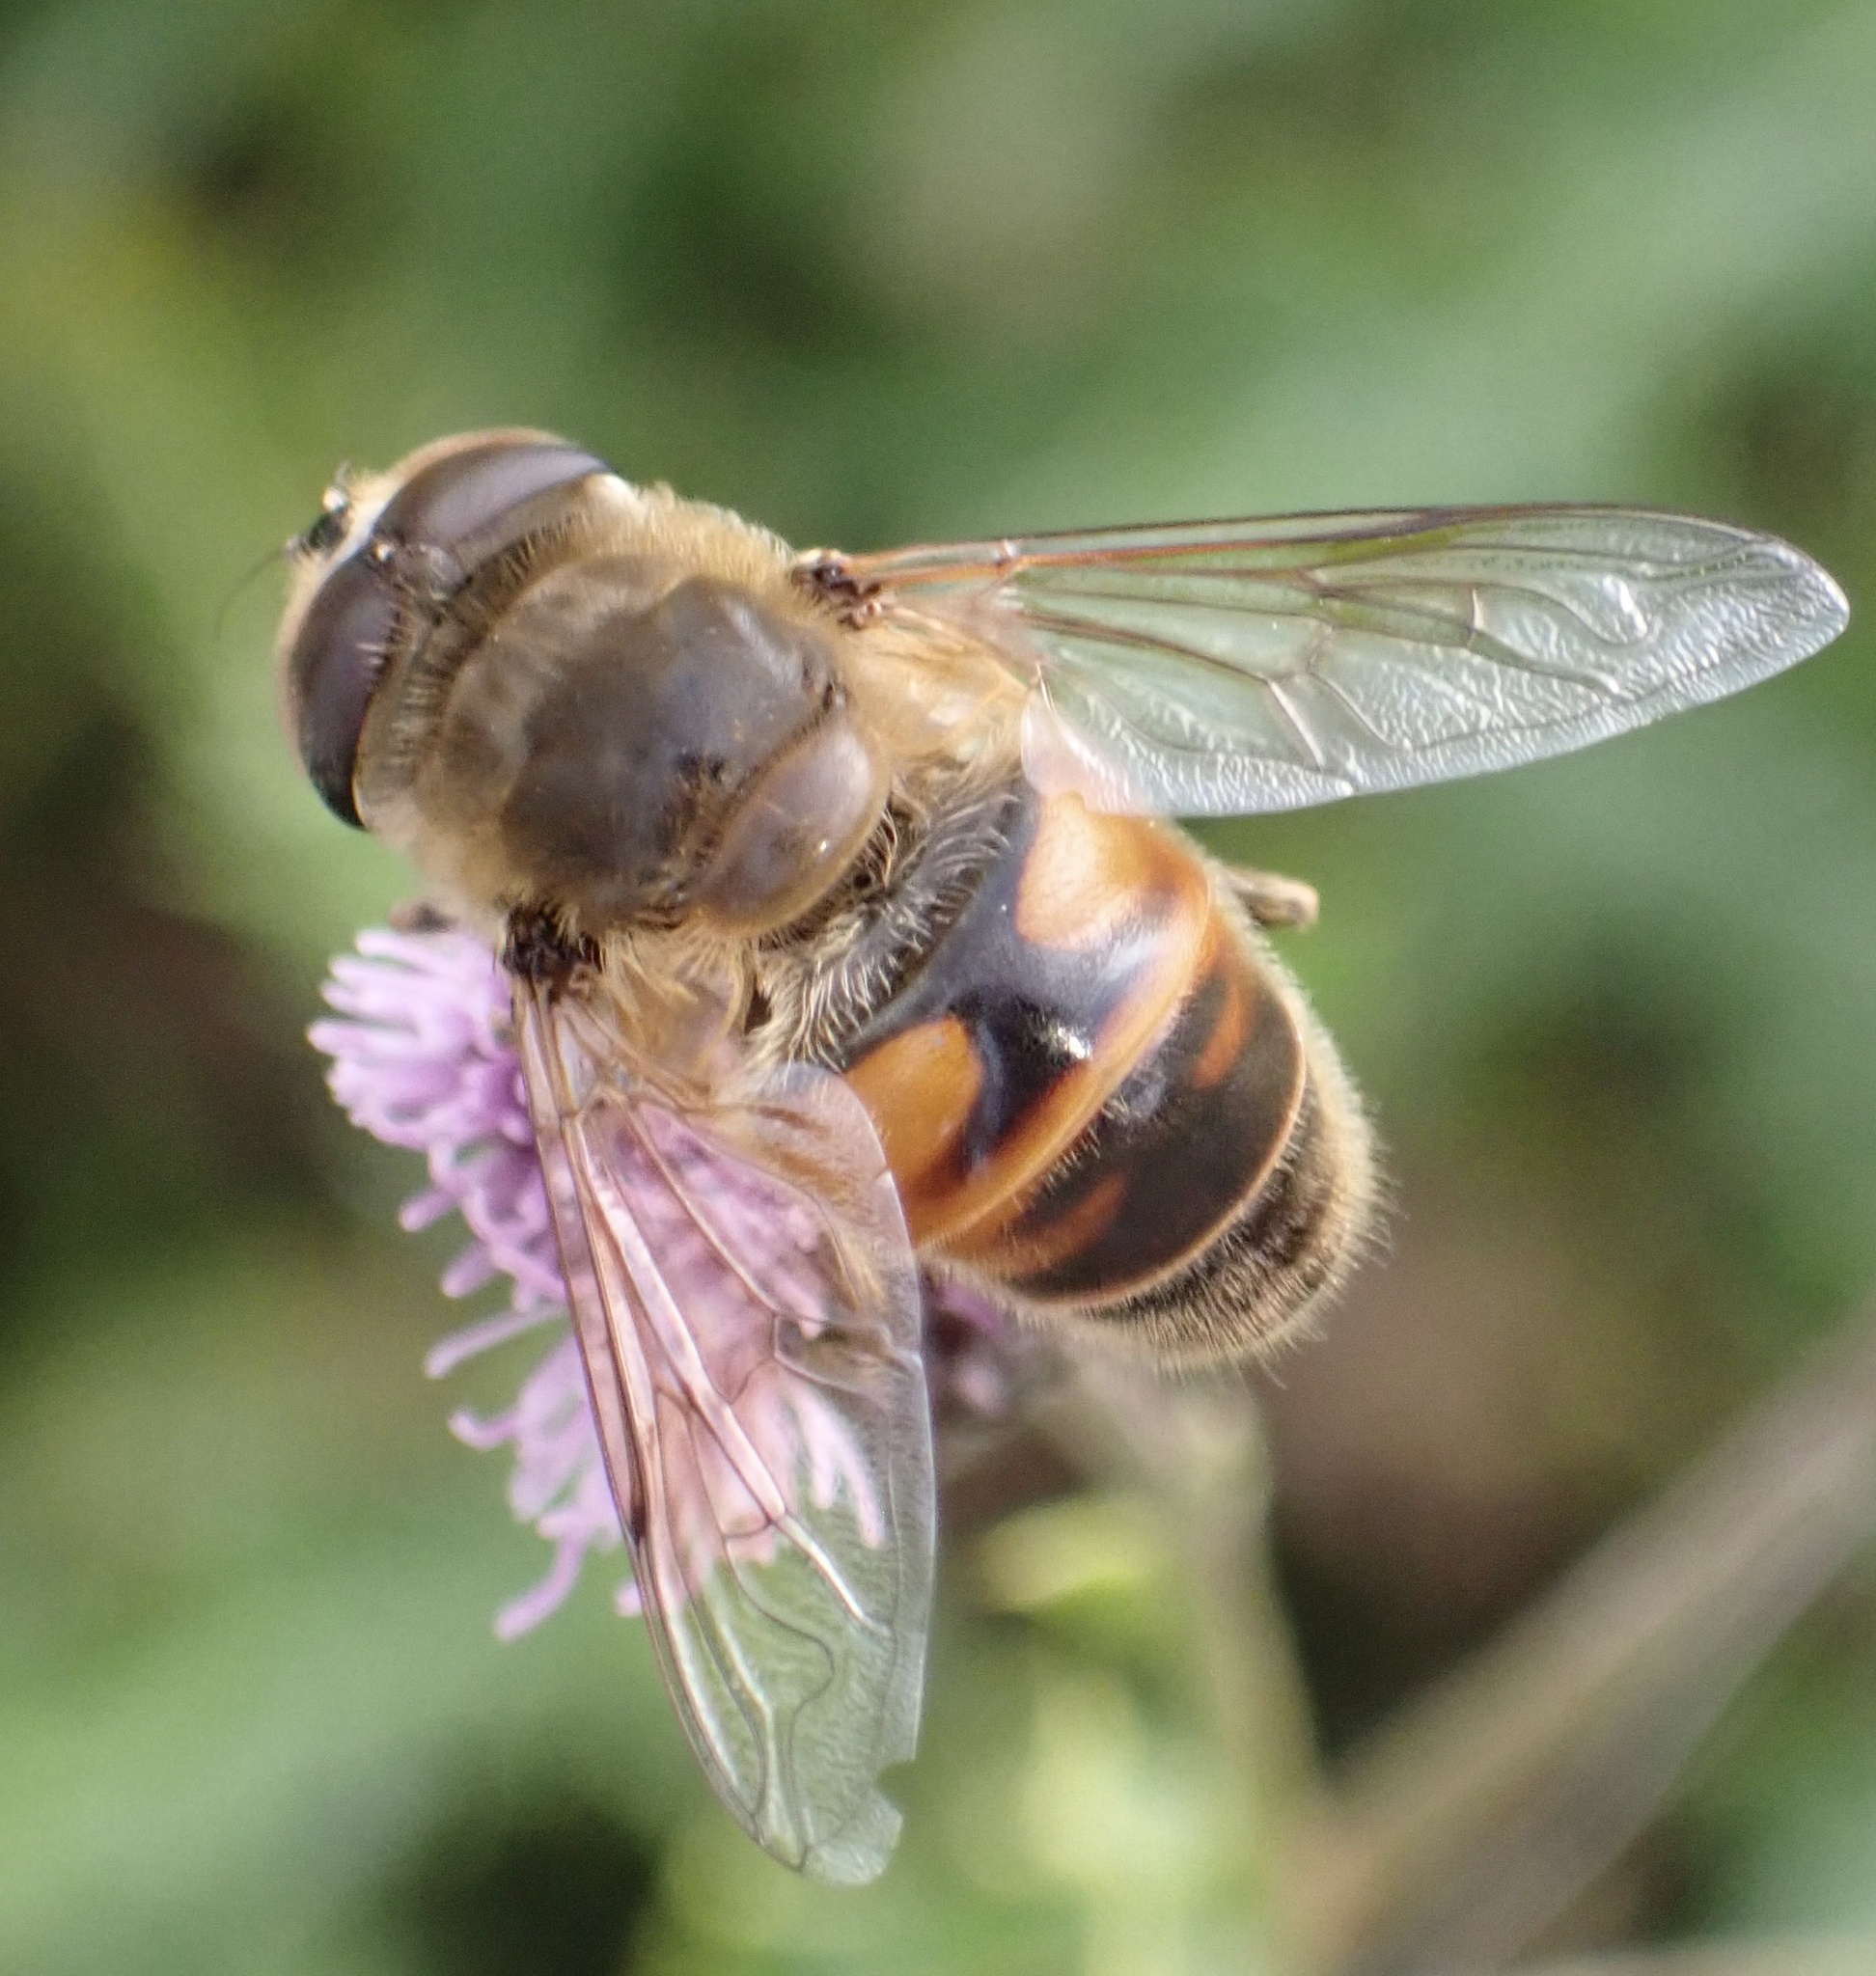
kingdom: Animalia
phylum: Arthropoda
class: Insecta
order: Diptera
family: Syrphidae
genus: Eristalis
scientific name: Eristalis tenax
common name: Drone fly
